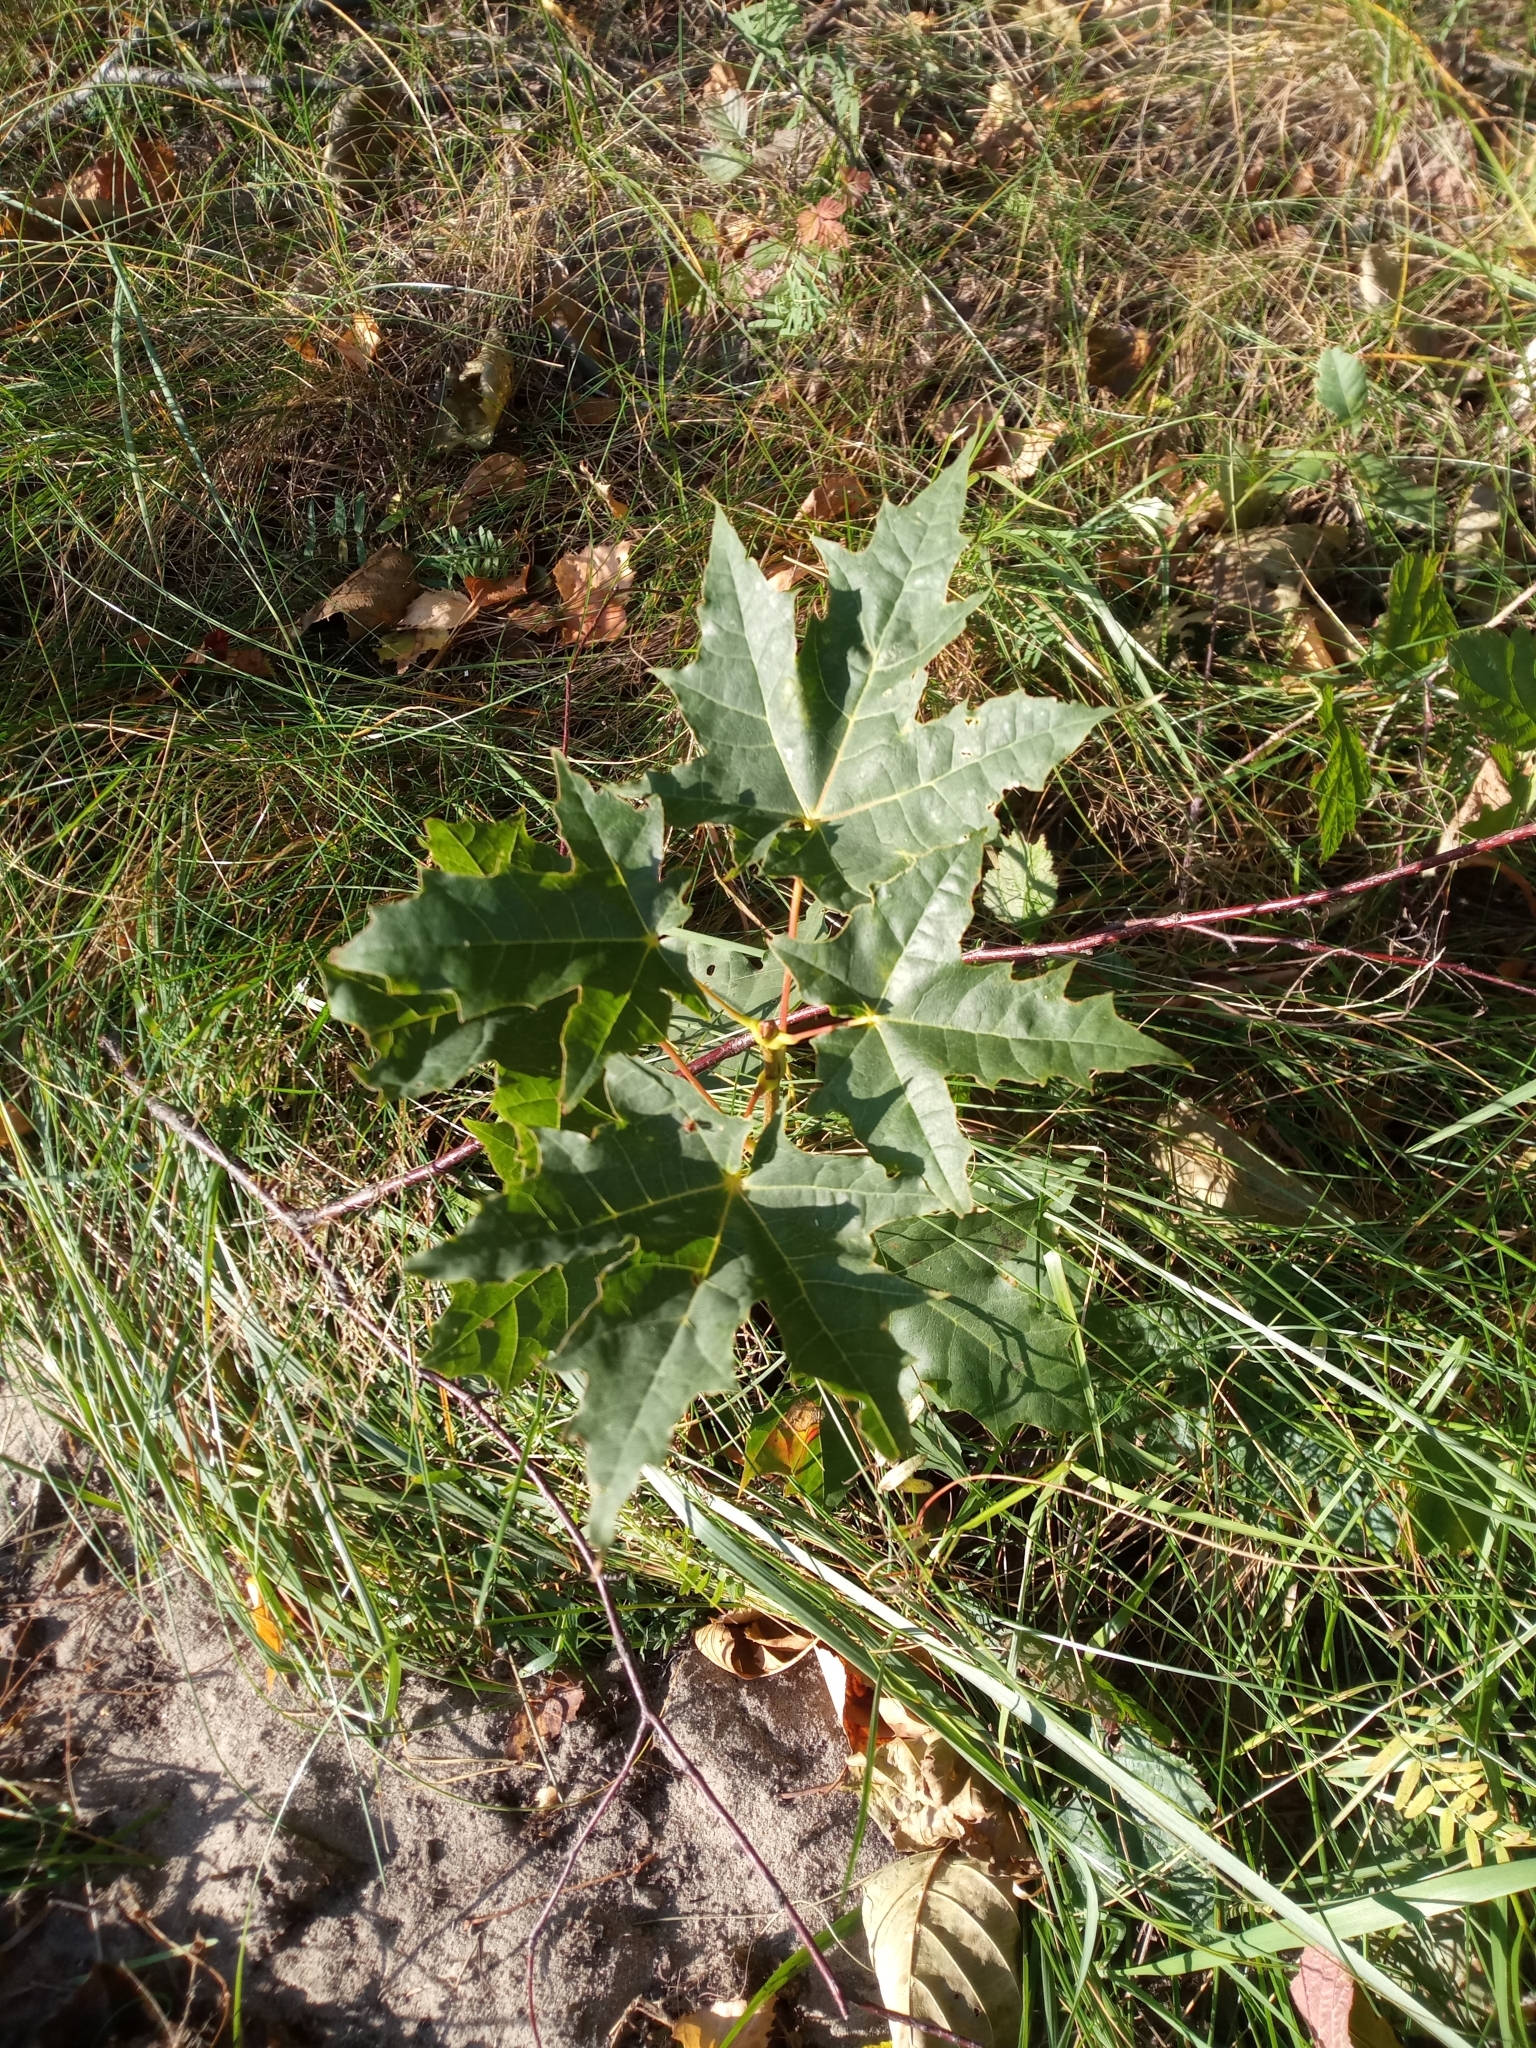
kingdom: Plantae
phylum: Tracheophyta
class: Magnoliopsida
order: Sapindales
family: Sapindaceae
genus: Acer
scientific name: Acer platanoides
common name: Norway maple
